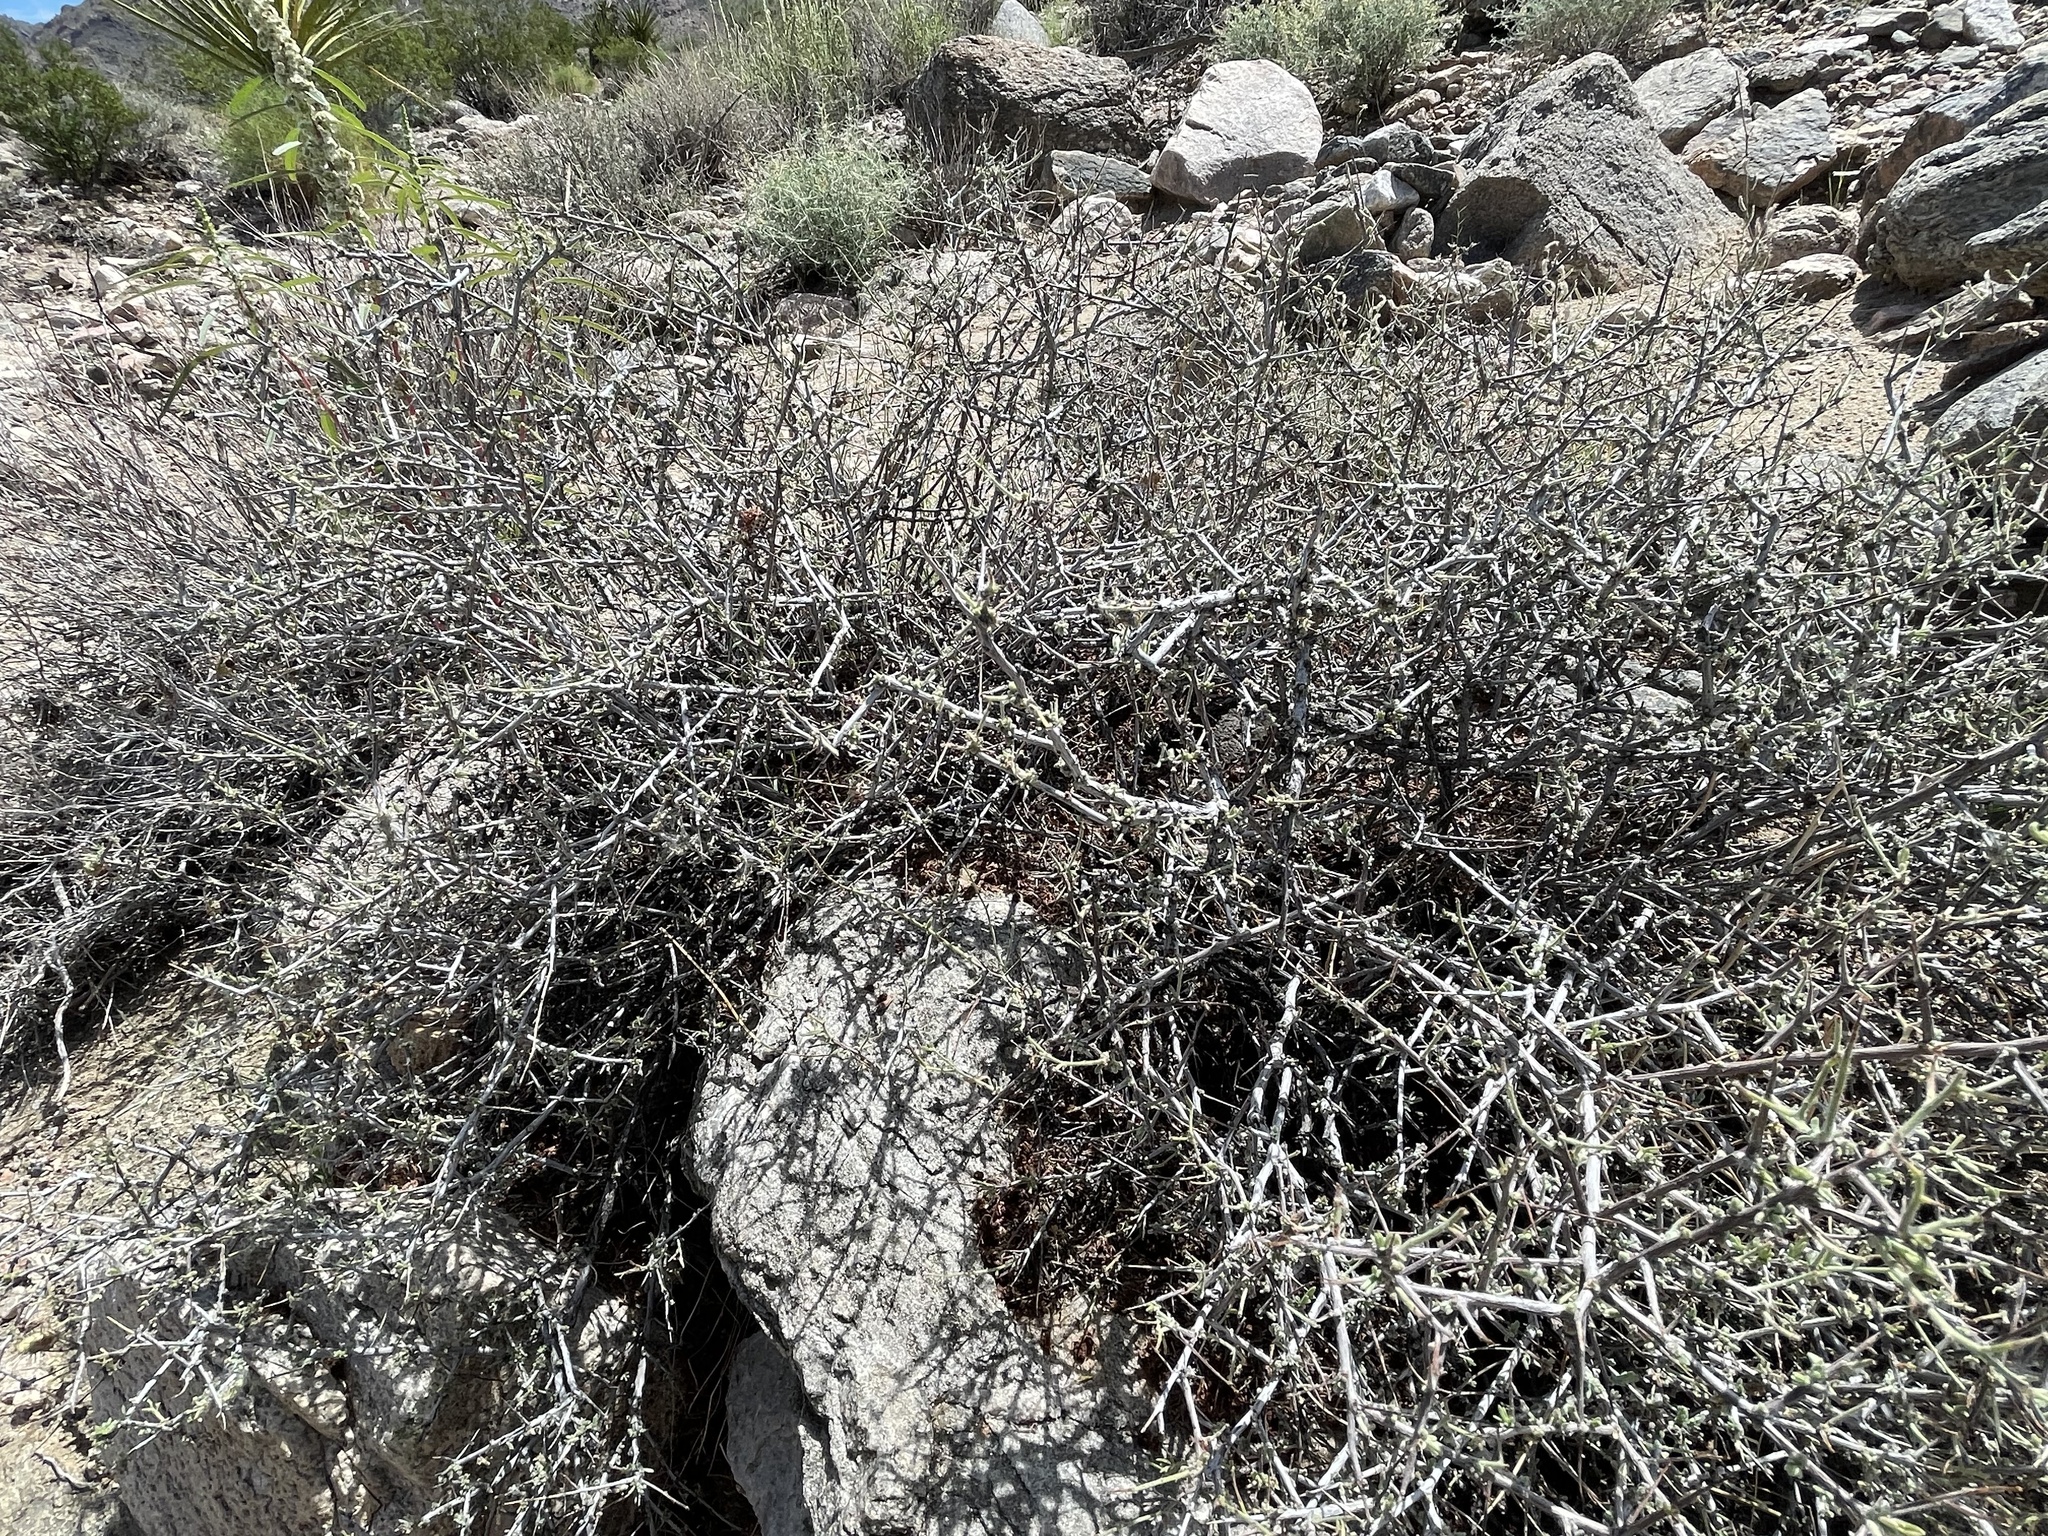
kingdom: Plantae
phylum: Tracheophyta
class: Magnoliopsida
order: Zygophyllales
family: Krameriaceae
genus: Krameria
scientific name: Krameria erecta
